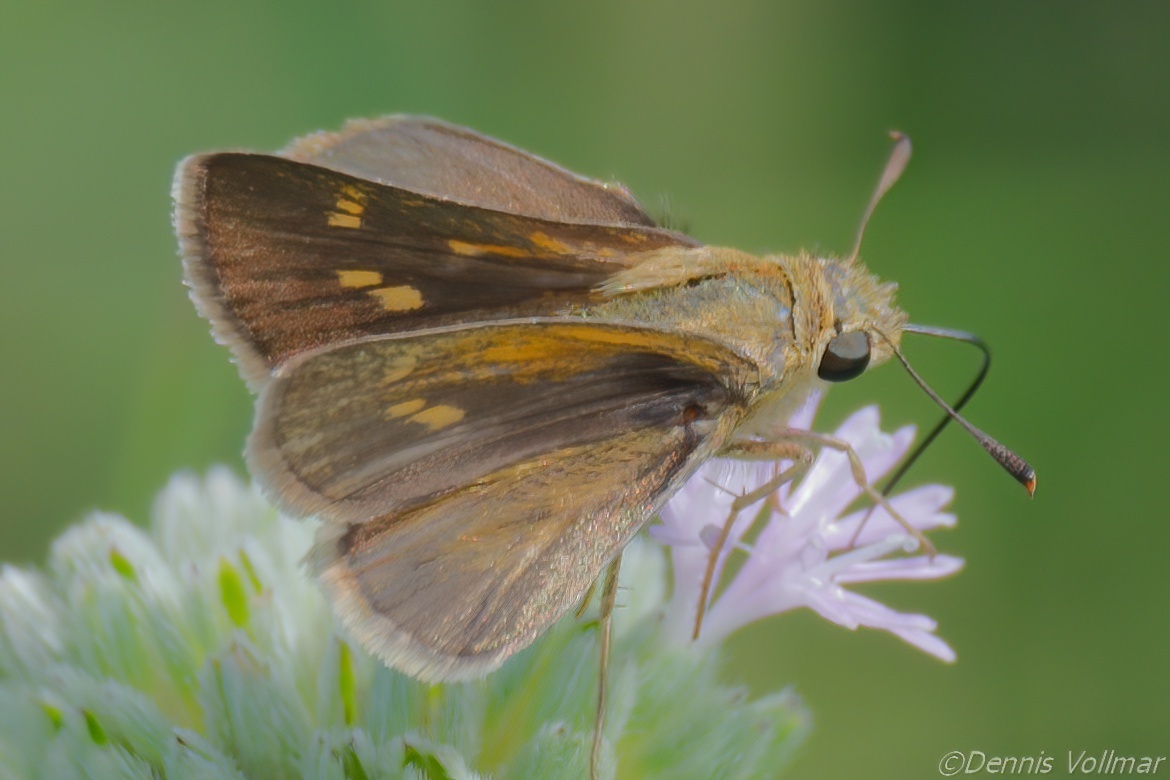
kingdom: Animalia
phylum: Arthropoda
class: Insecta
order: Lepidoptera
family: Hesperiidae
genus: Polites
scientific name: Polites themistocles
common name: Tawny-edged skipper
